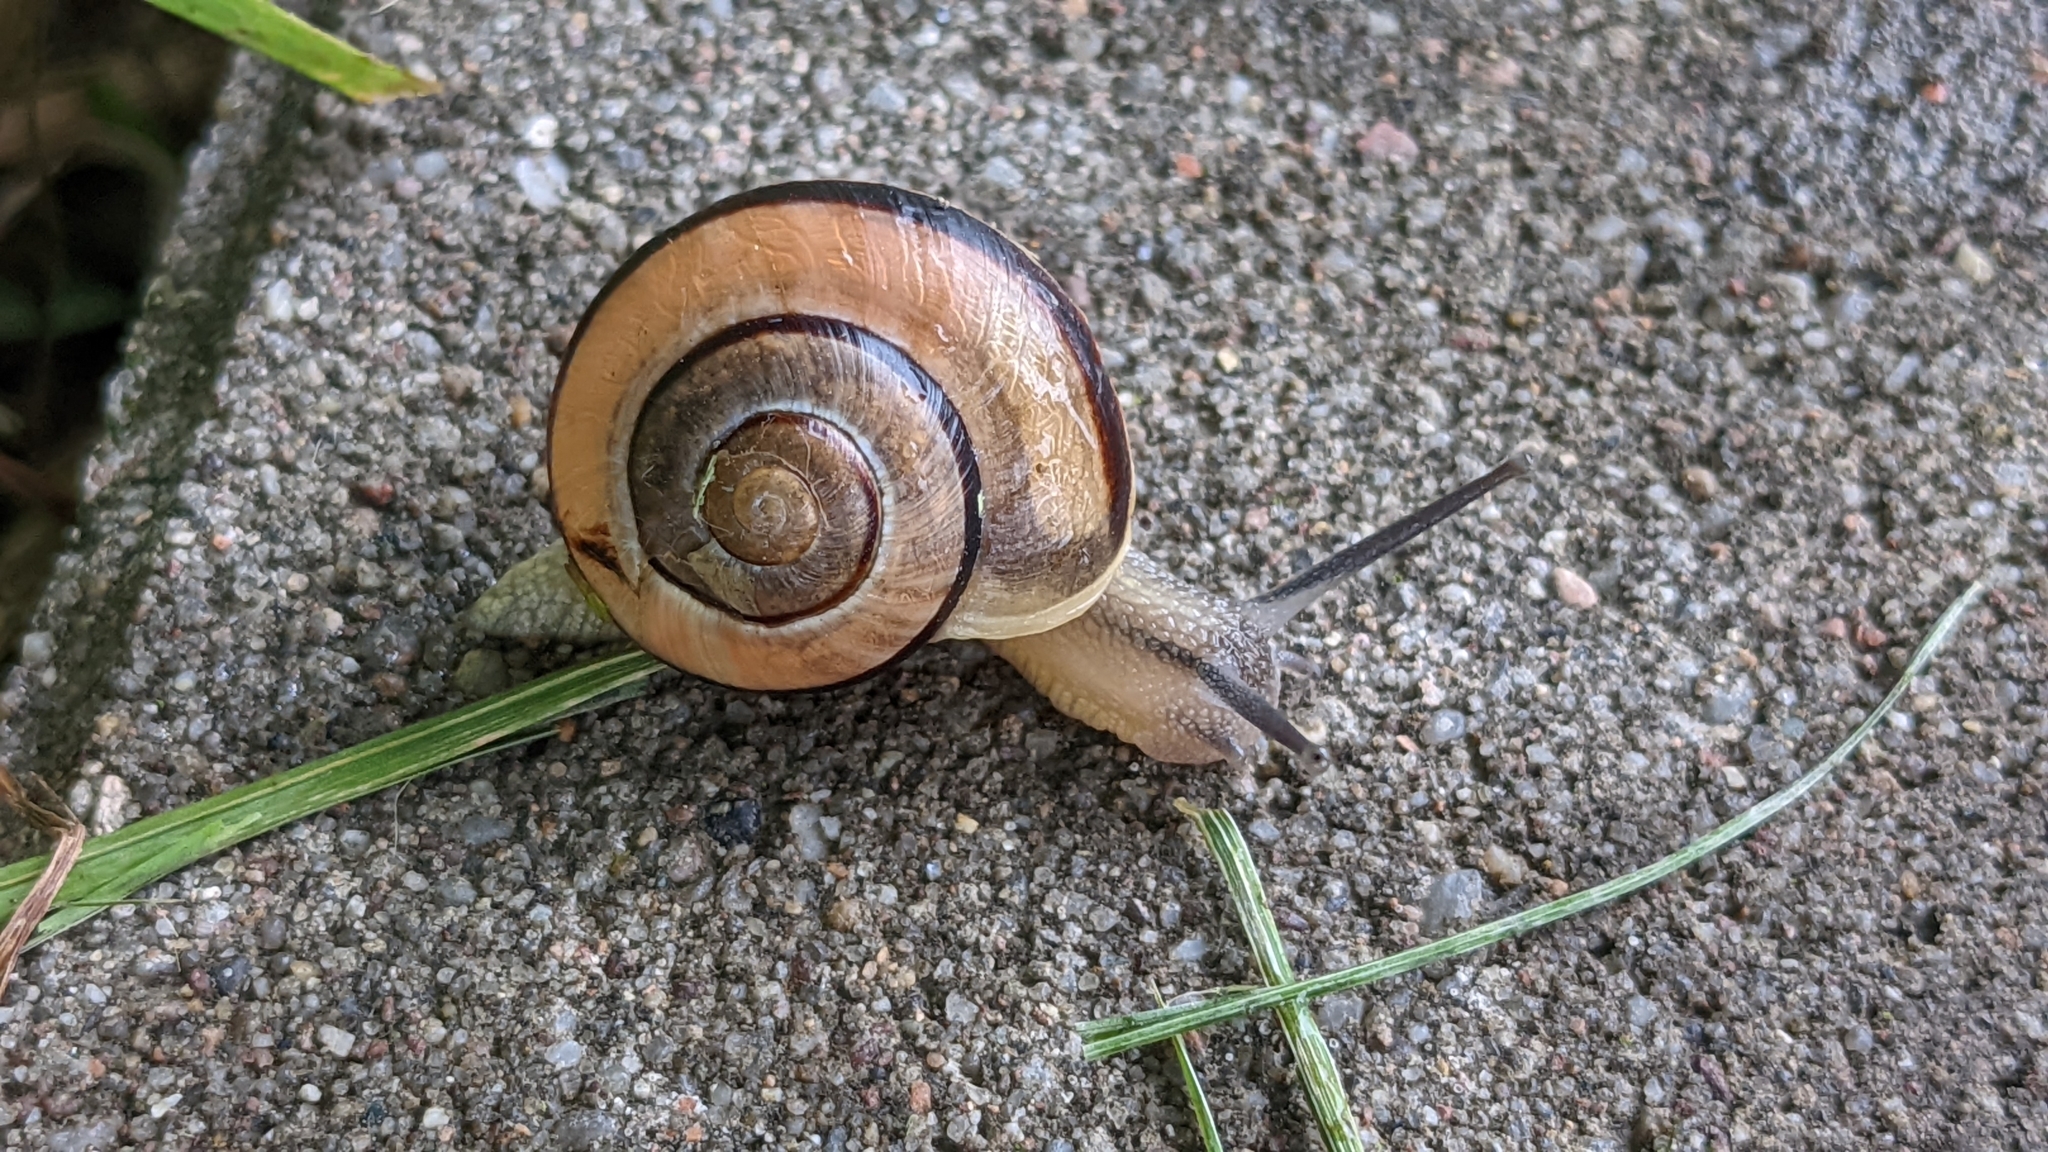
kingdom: Animalia
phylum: Mollusca
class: Gastropoda
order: Stylommatophora
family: Helicidae
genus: Cepaea
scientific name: Cepaea
